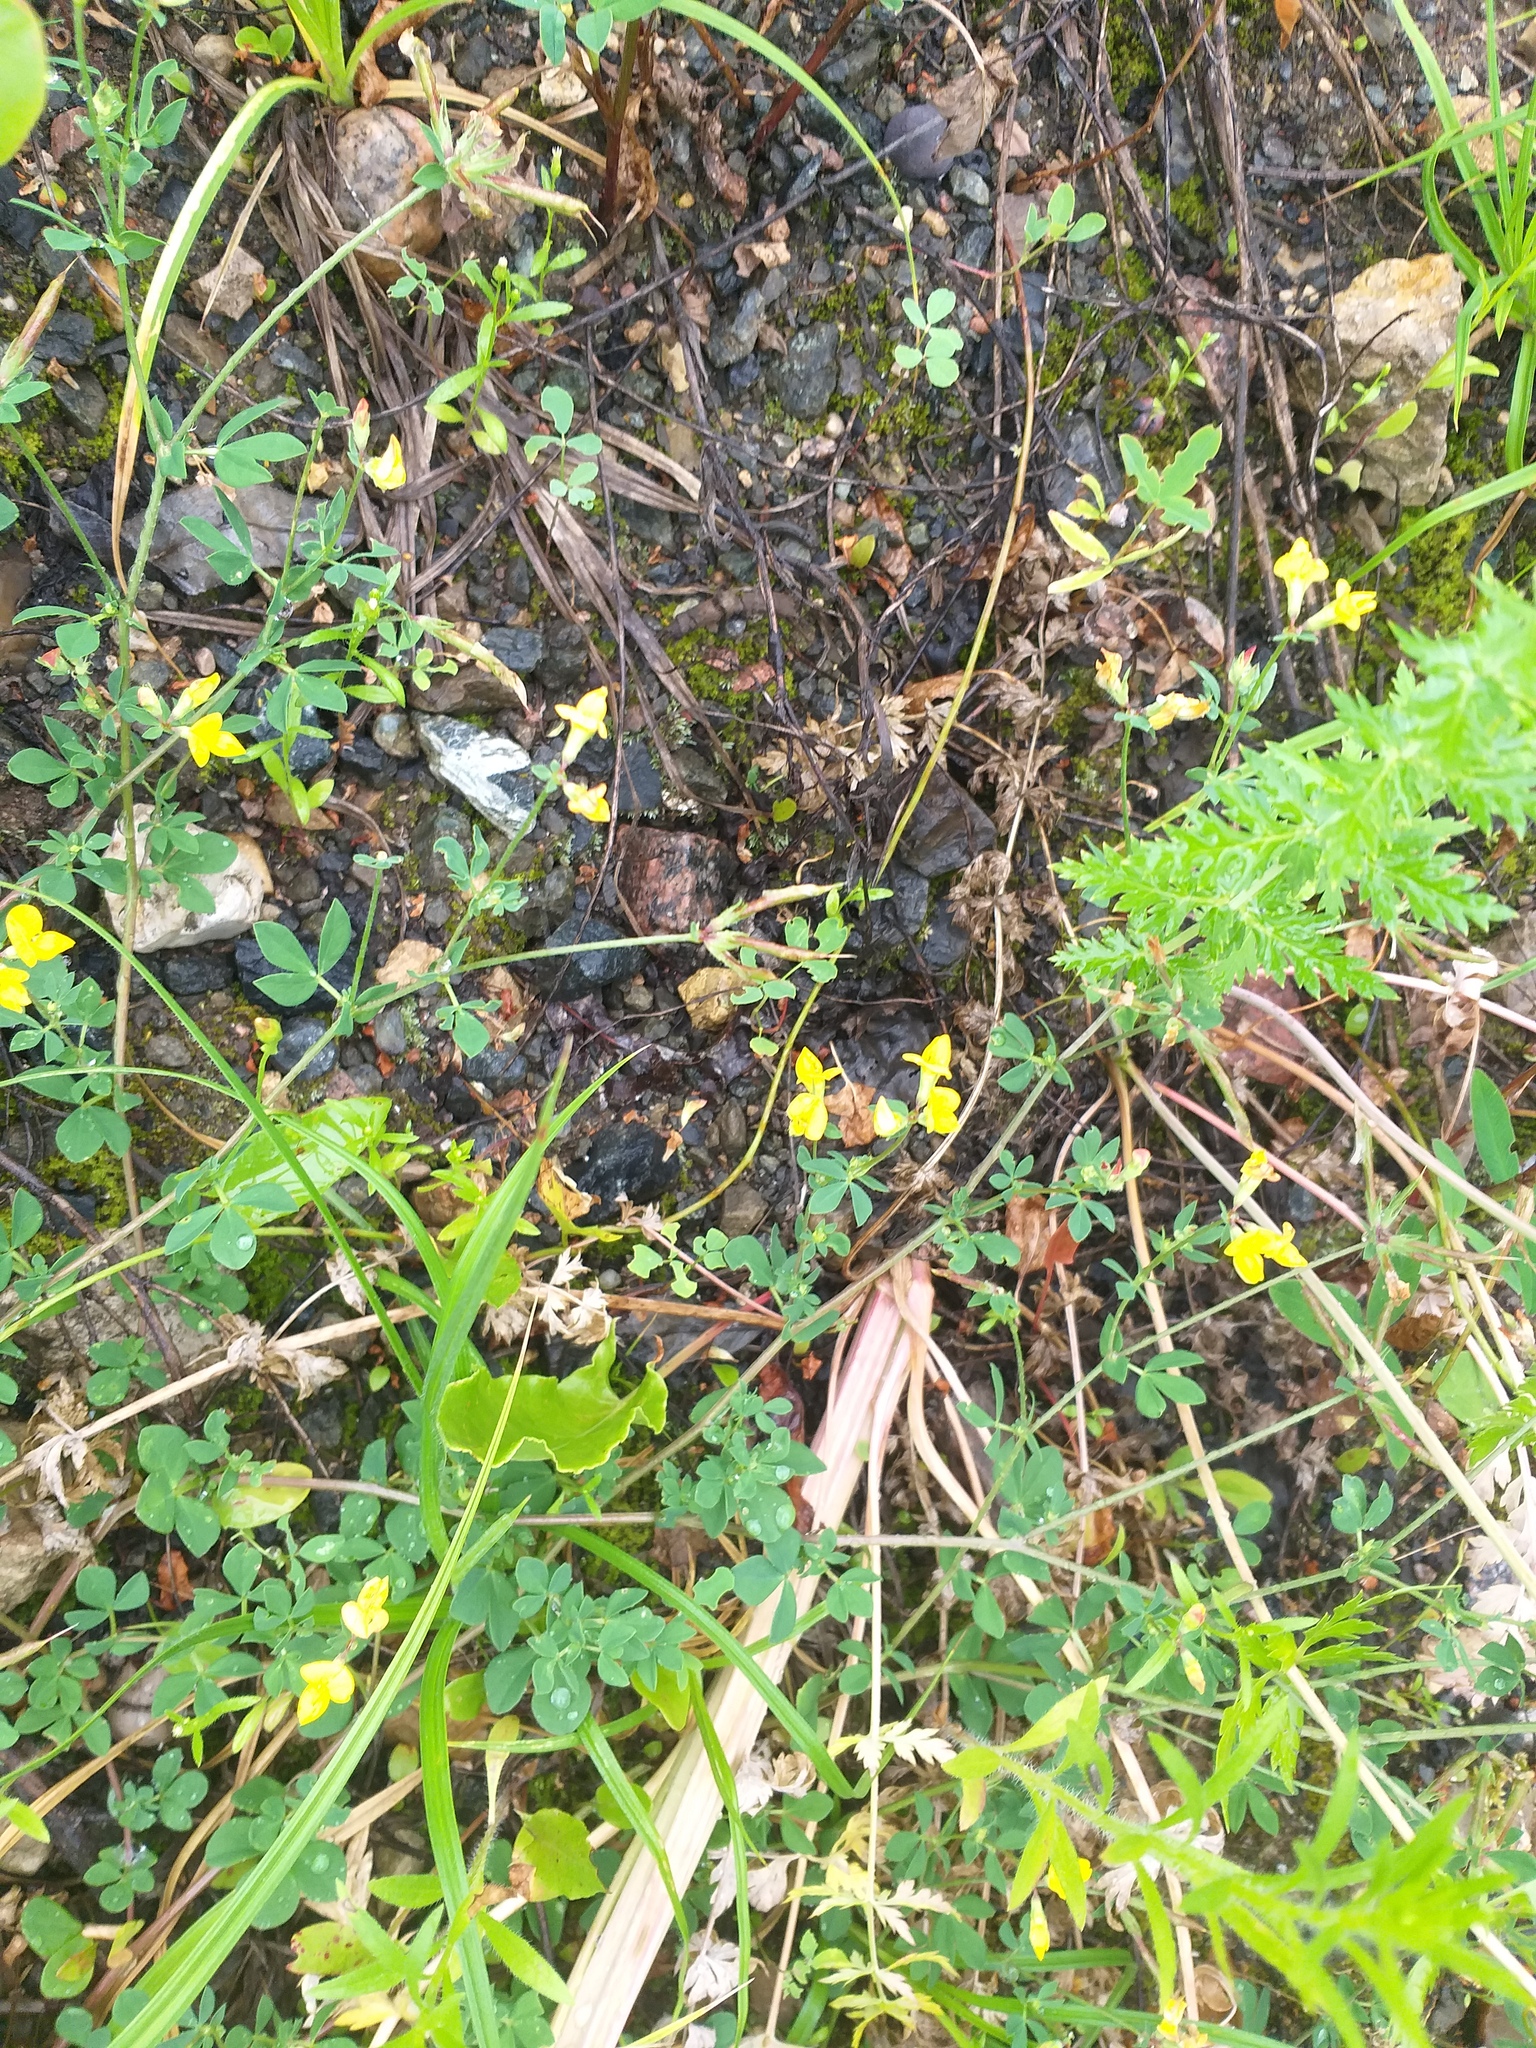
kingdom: Plantae
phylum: Tracheophyta
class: Magnoliopsida
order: Fabales
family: Fabaceae
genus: Lotus
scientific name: Lotus corniculatus
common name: Common bird's-foot-trefoil
